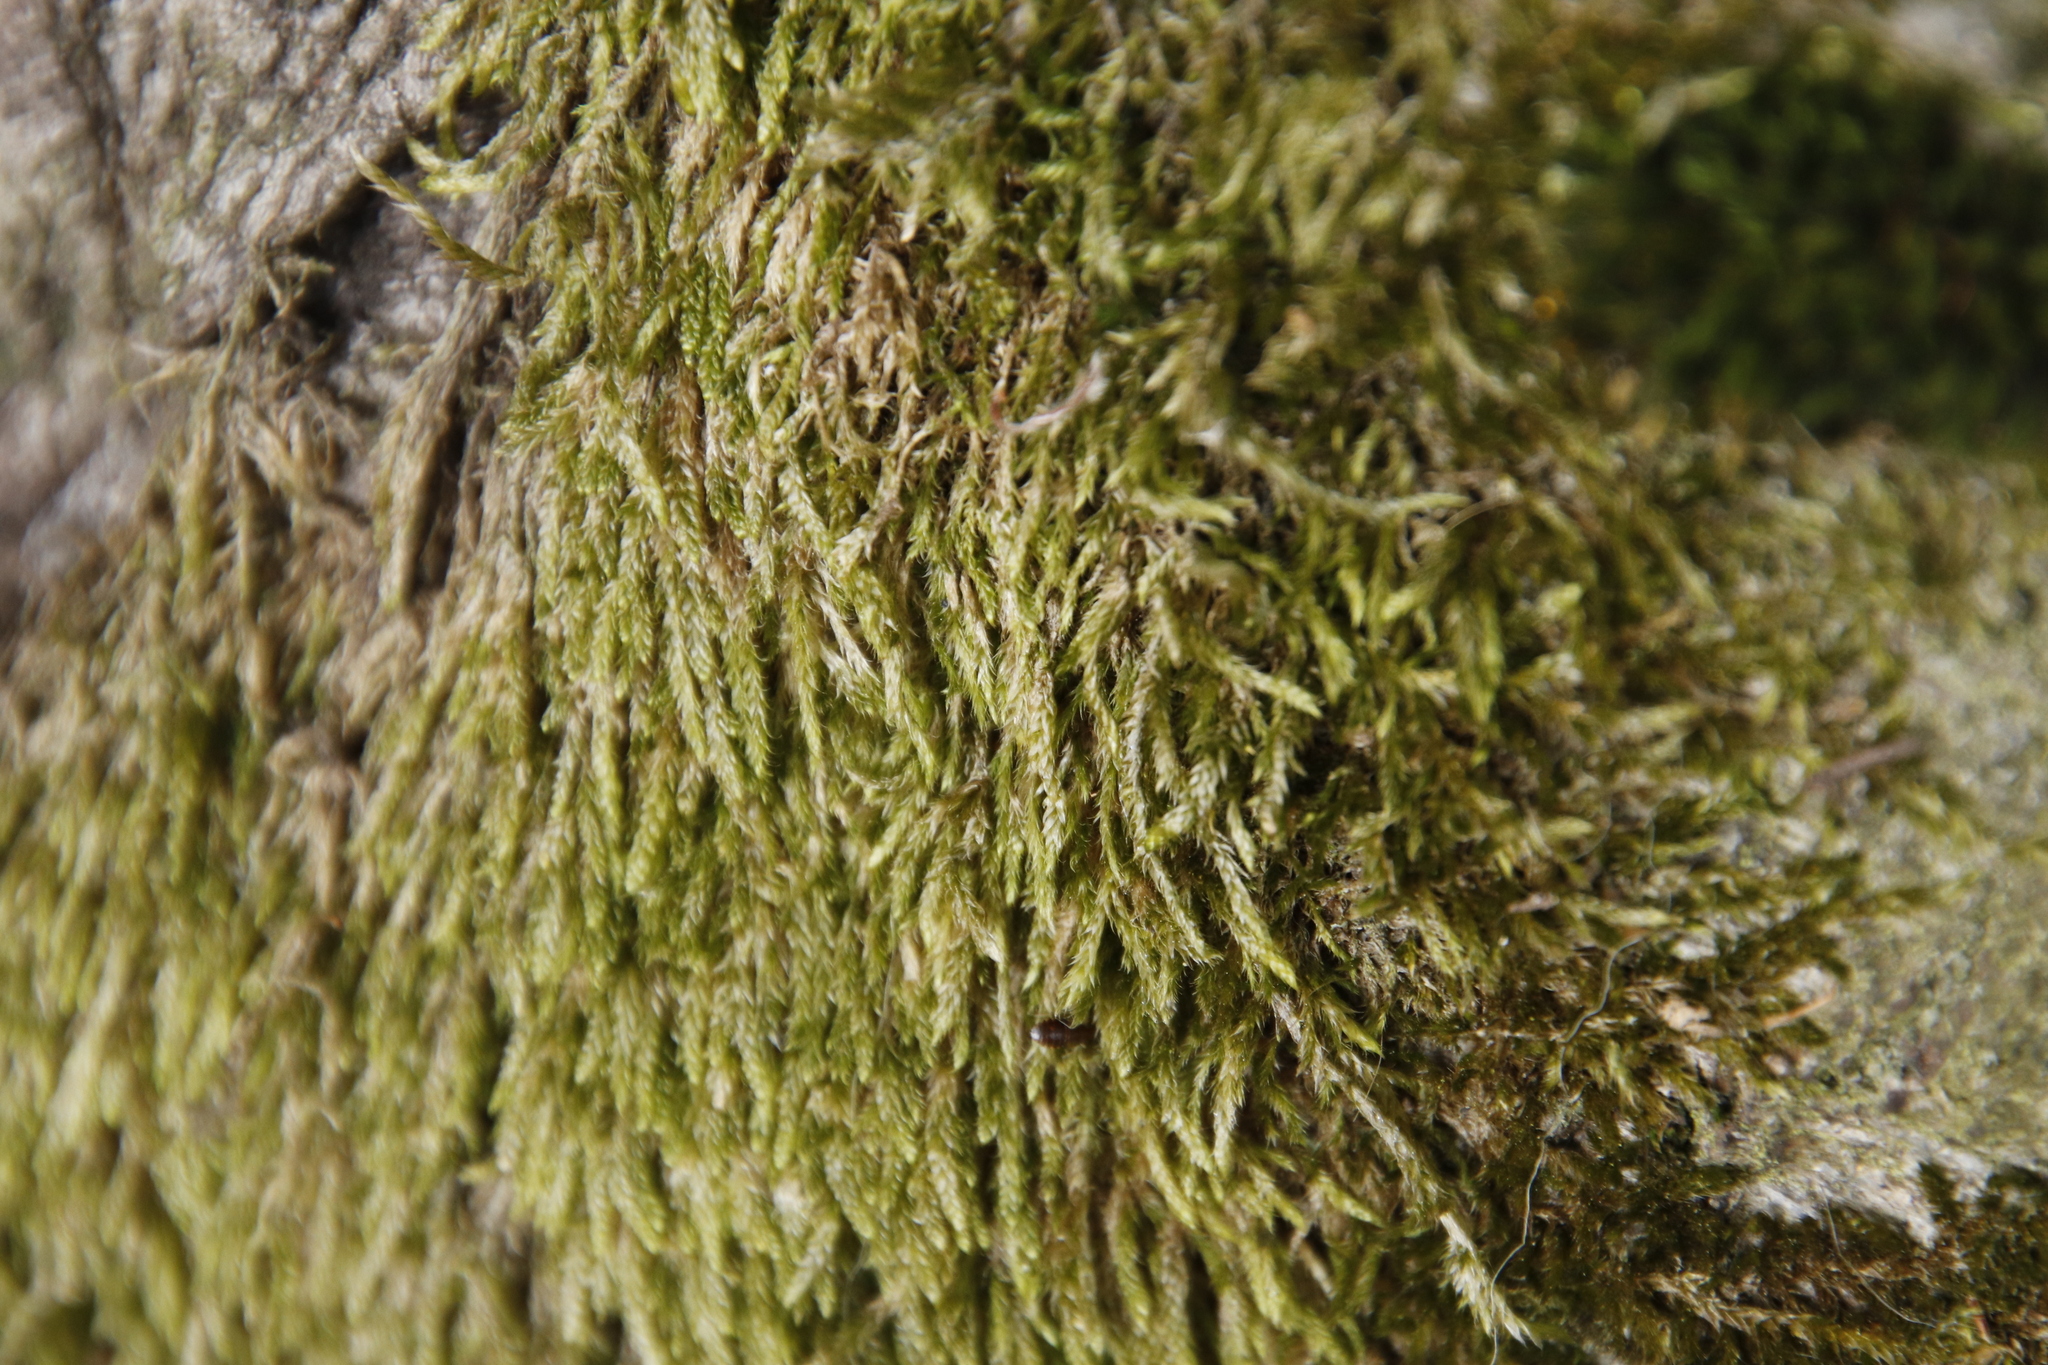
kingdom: Plantae
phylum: Bryophyta
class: Bryopsida
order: Hypnales
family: Hypnaceae
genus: Hypnum
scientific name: Hypnum cupressiforme
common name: Cypress-leaved plait-moss
